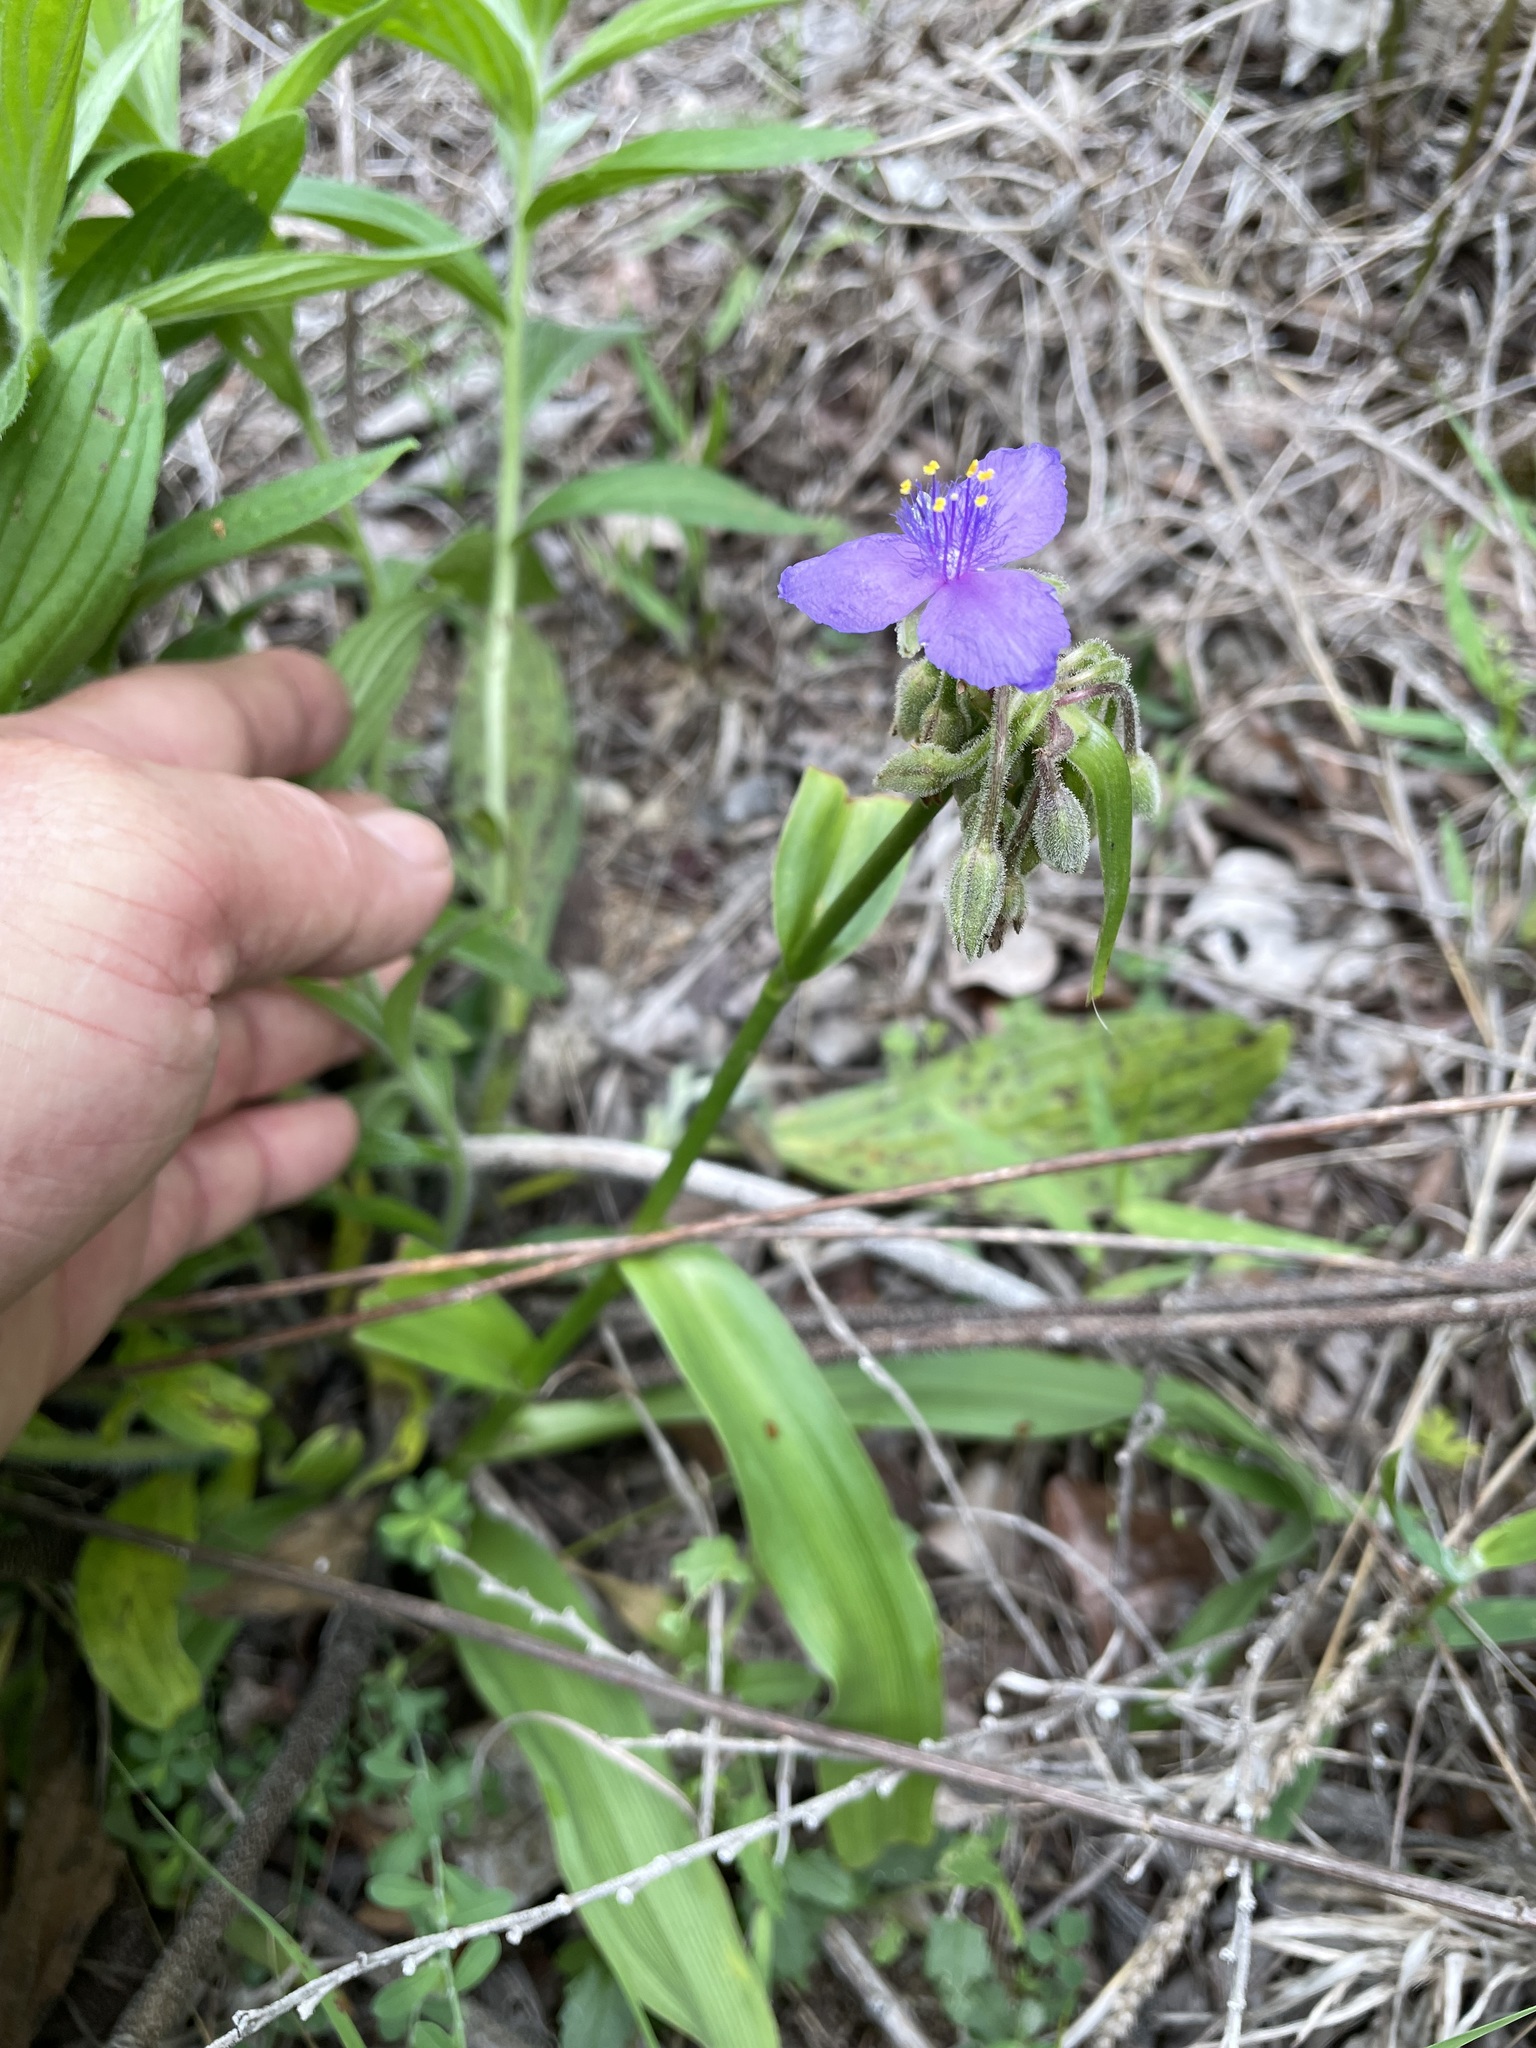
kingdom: Plantae
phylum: Tracheophyta
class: Liliopsida
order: Commelinales
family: Commelinaceae
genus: Tradescantia
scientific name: Tradescantia gigantea
